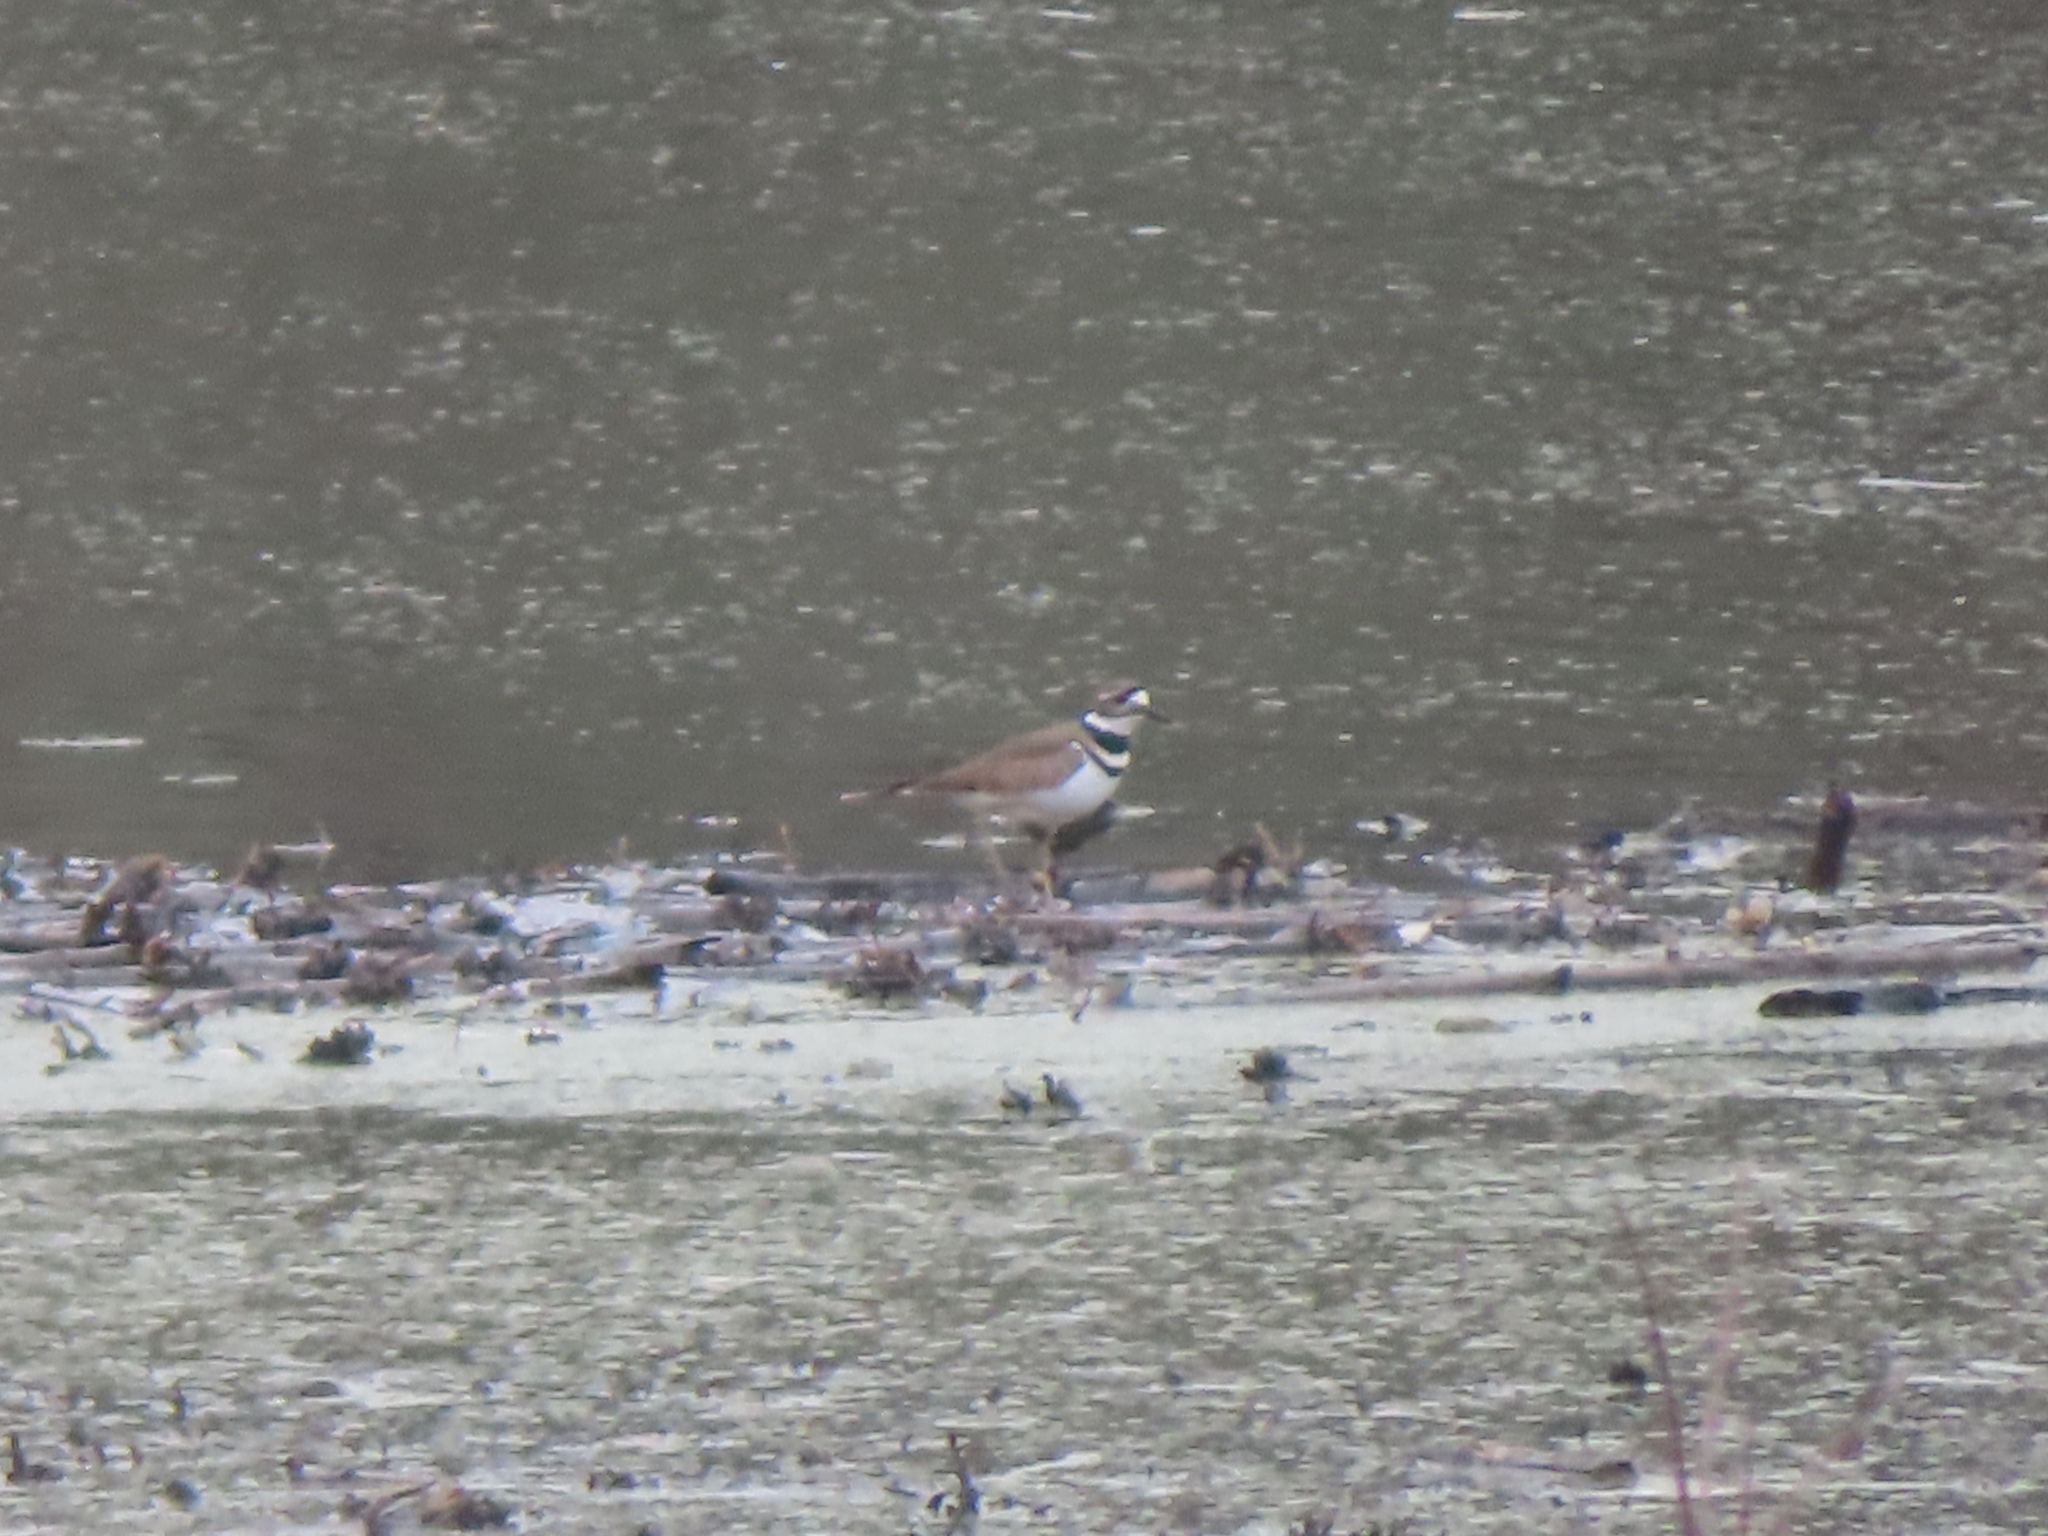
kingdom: Animalia
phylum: Chordata
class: Aves
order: Charadriiformes
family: Charadriidae
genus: Charadrius
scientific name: Charadrius vociferus
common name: Killdeer
